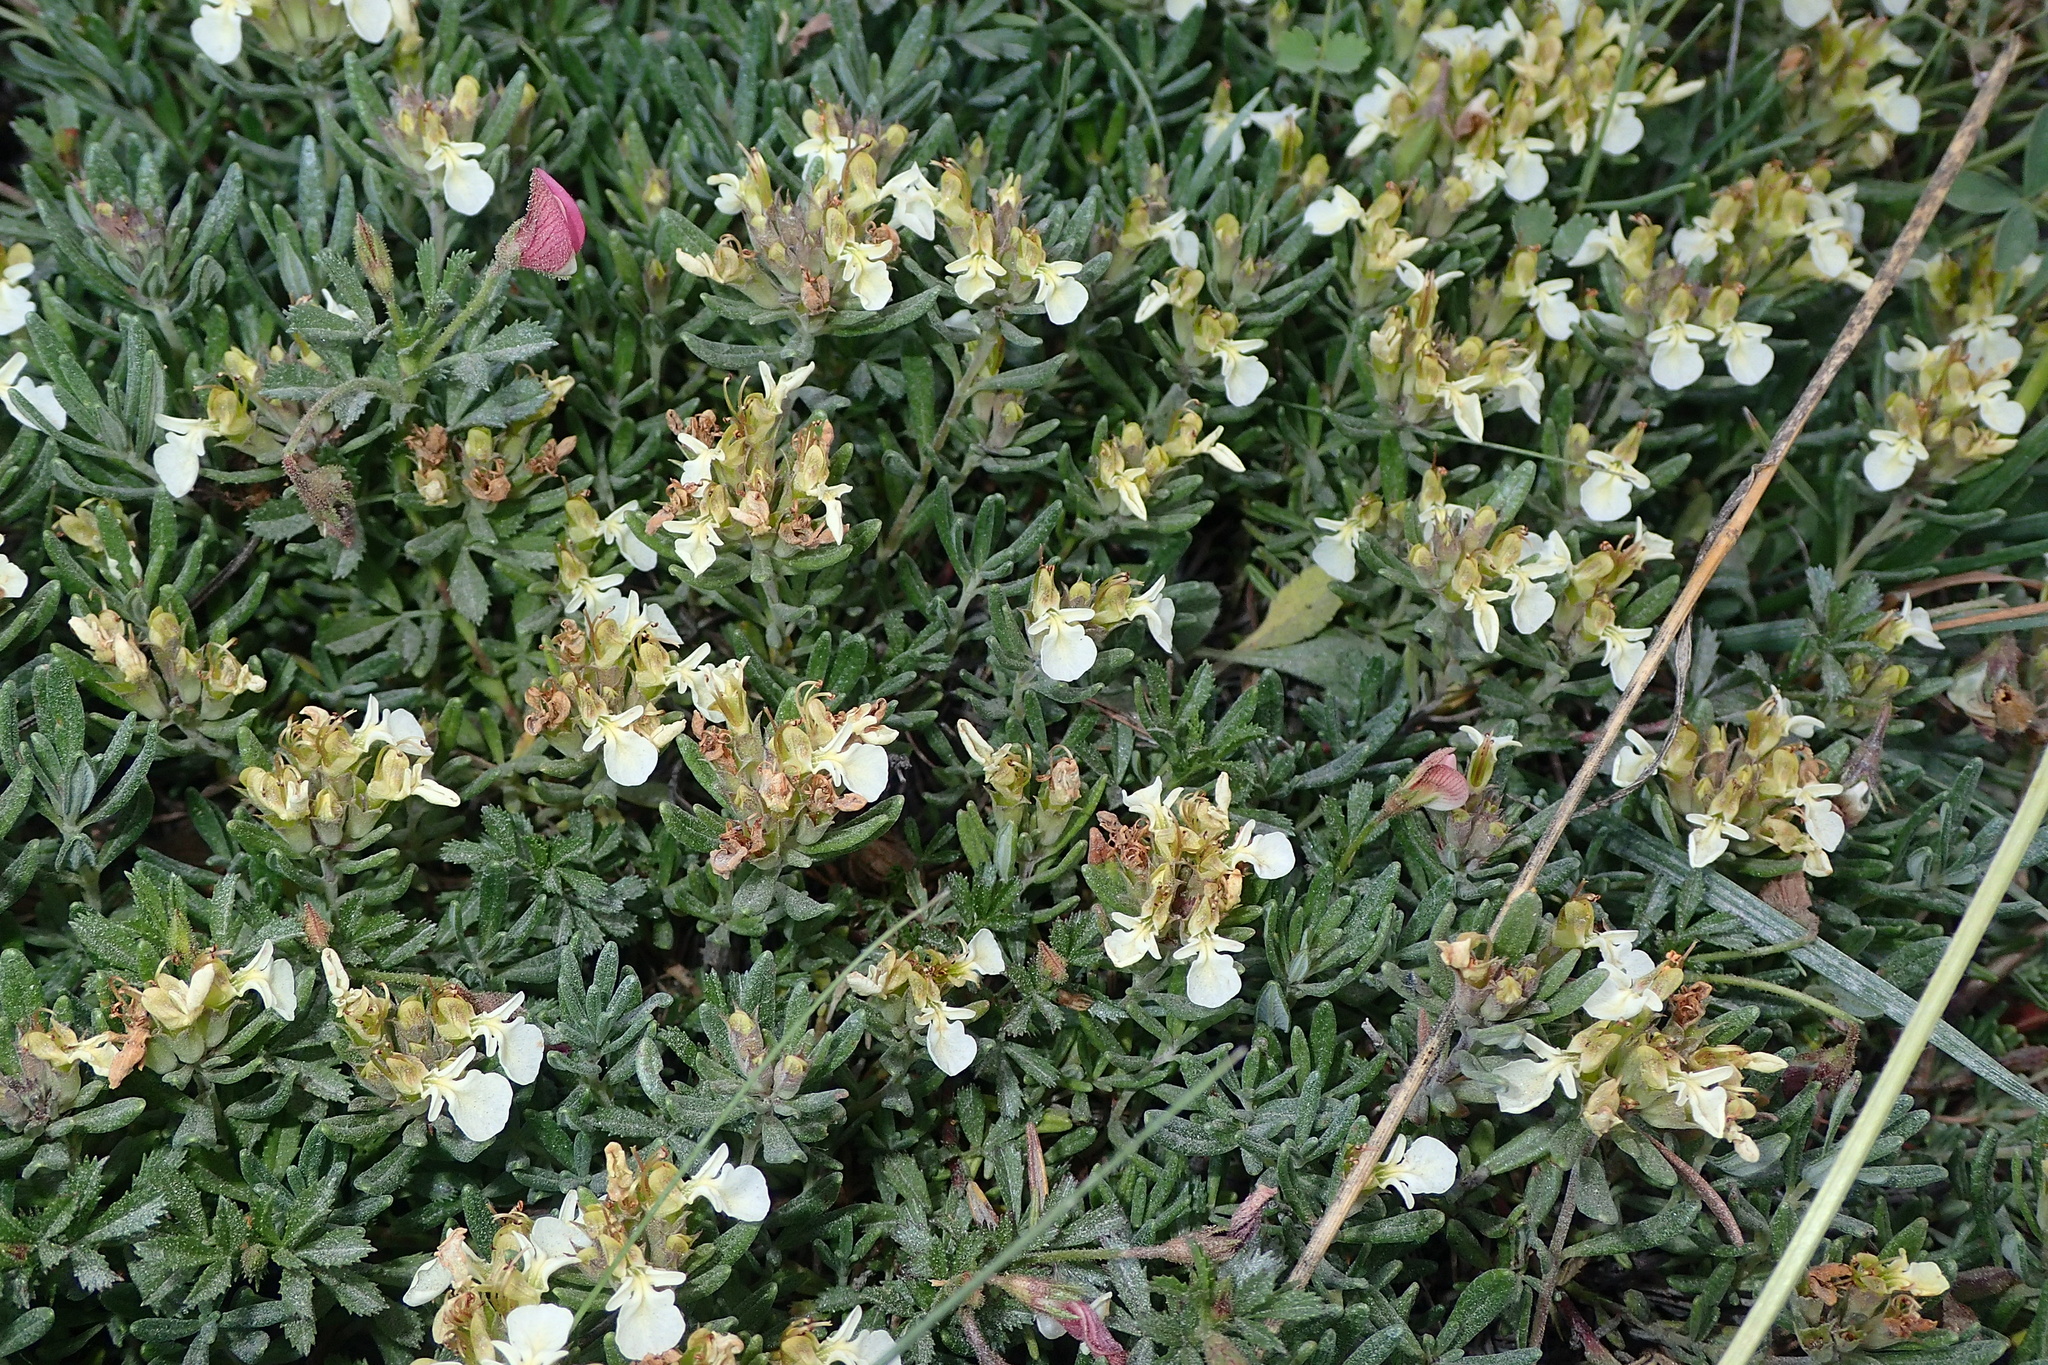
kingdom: Plantae
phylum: Tracheophyta
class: Magnoliopsida
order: Lamiales
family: Lamiaceae
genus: Teucrium
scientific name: Teucrium montanum
